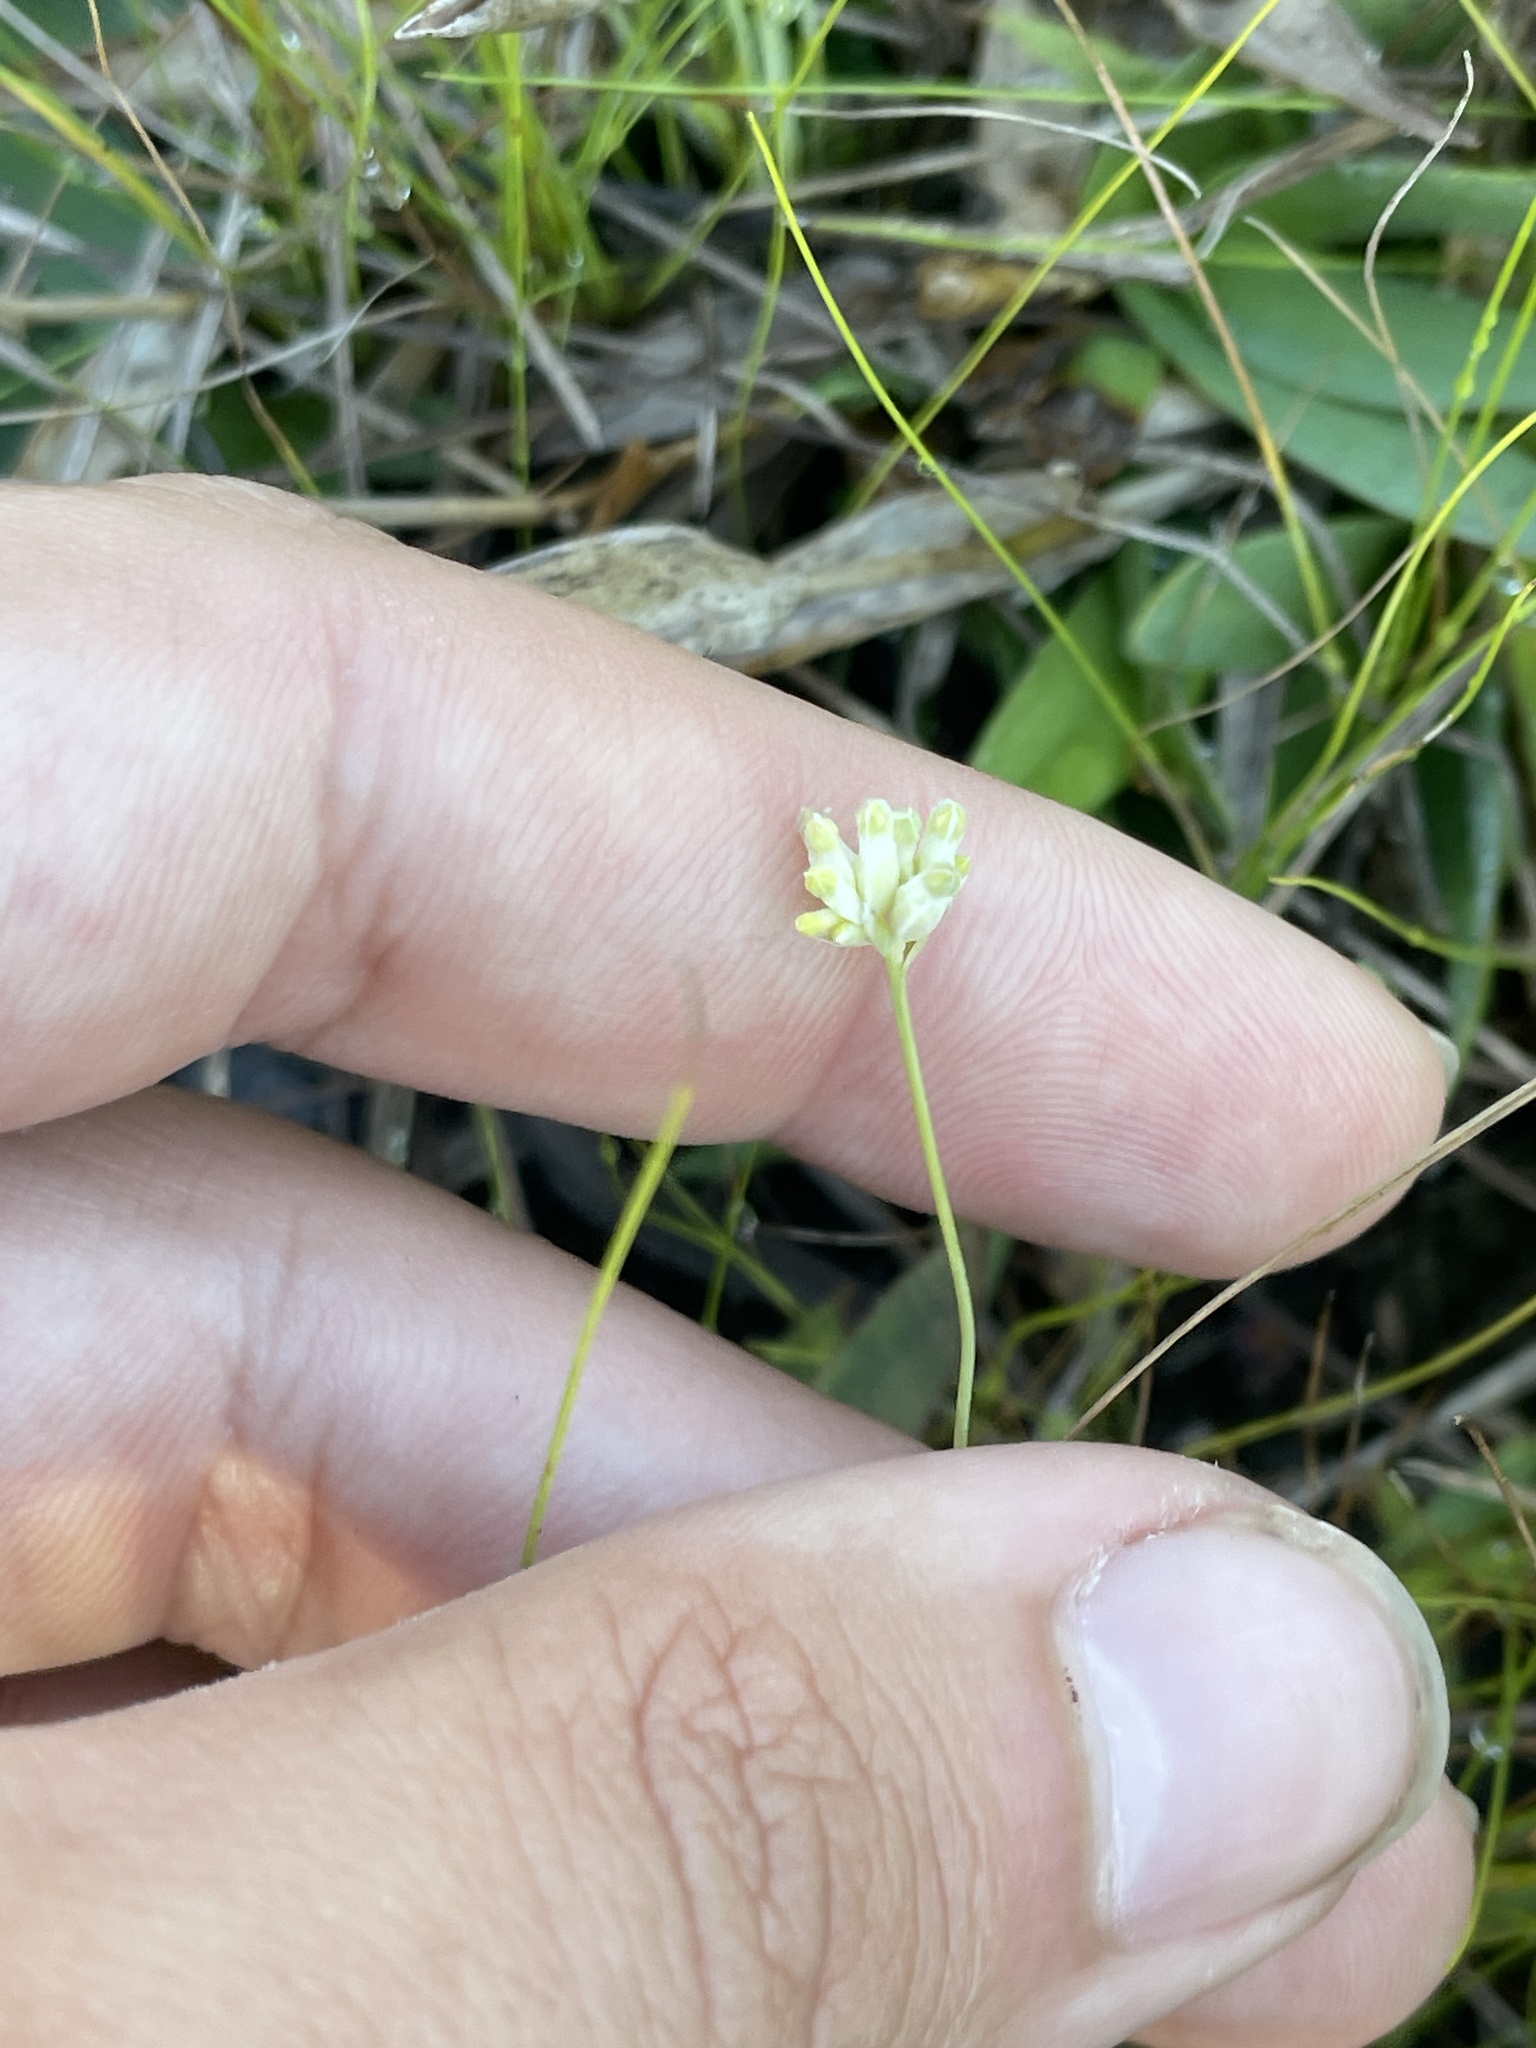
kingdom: Plantae
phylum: Tracheophyta
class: Liliopsida
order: Dioscoreales
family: Burmanniaceae
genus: Burmannia
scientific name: Burmannia capitata
